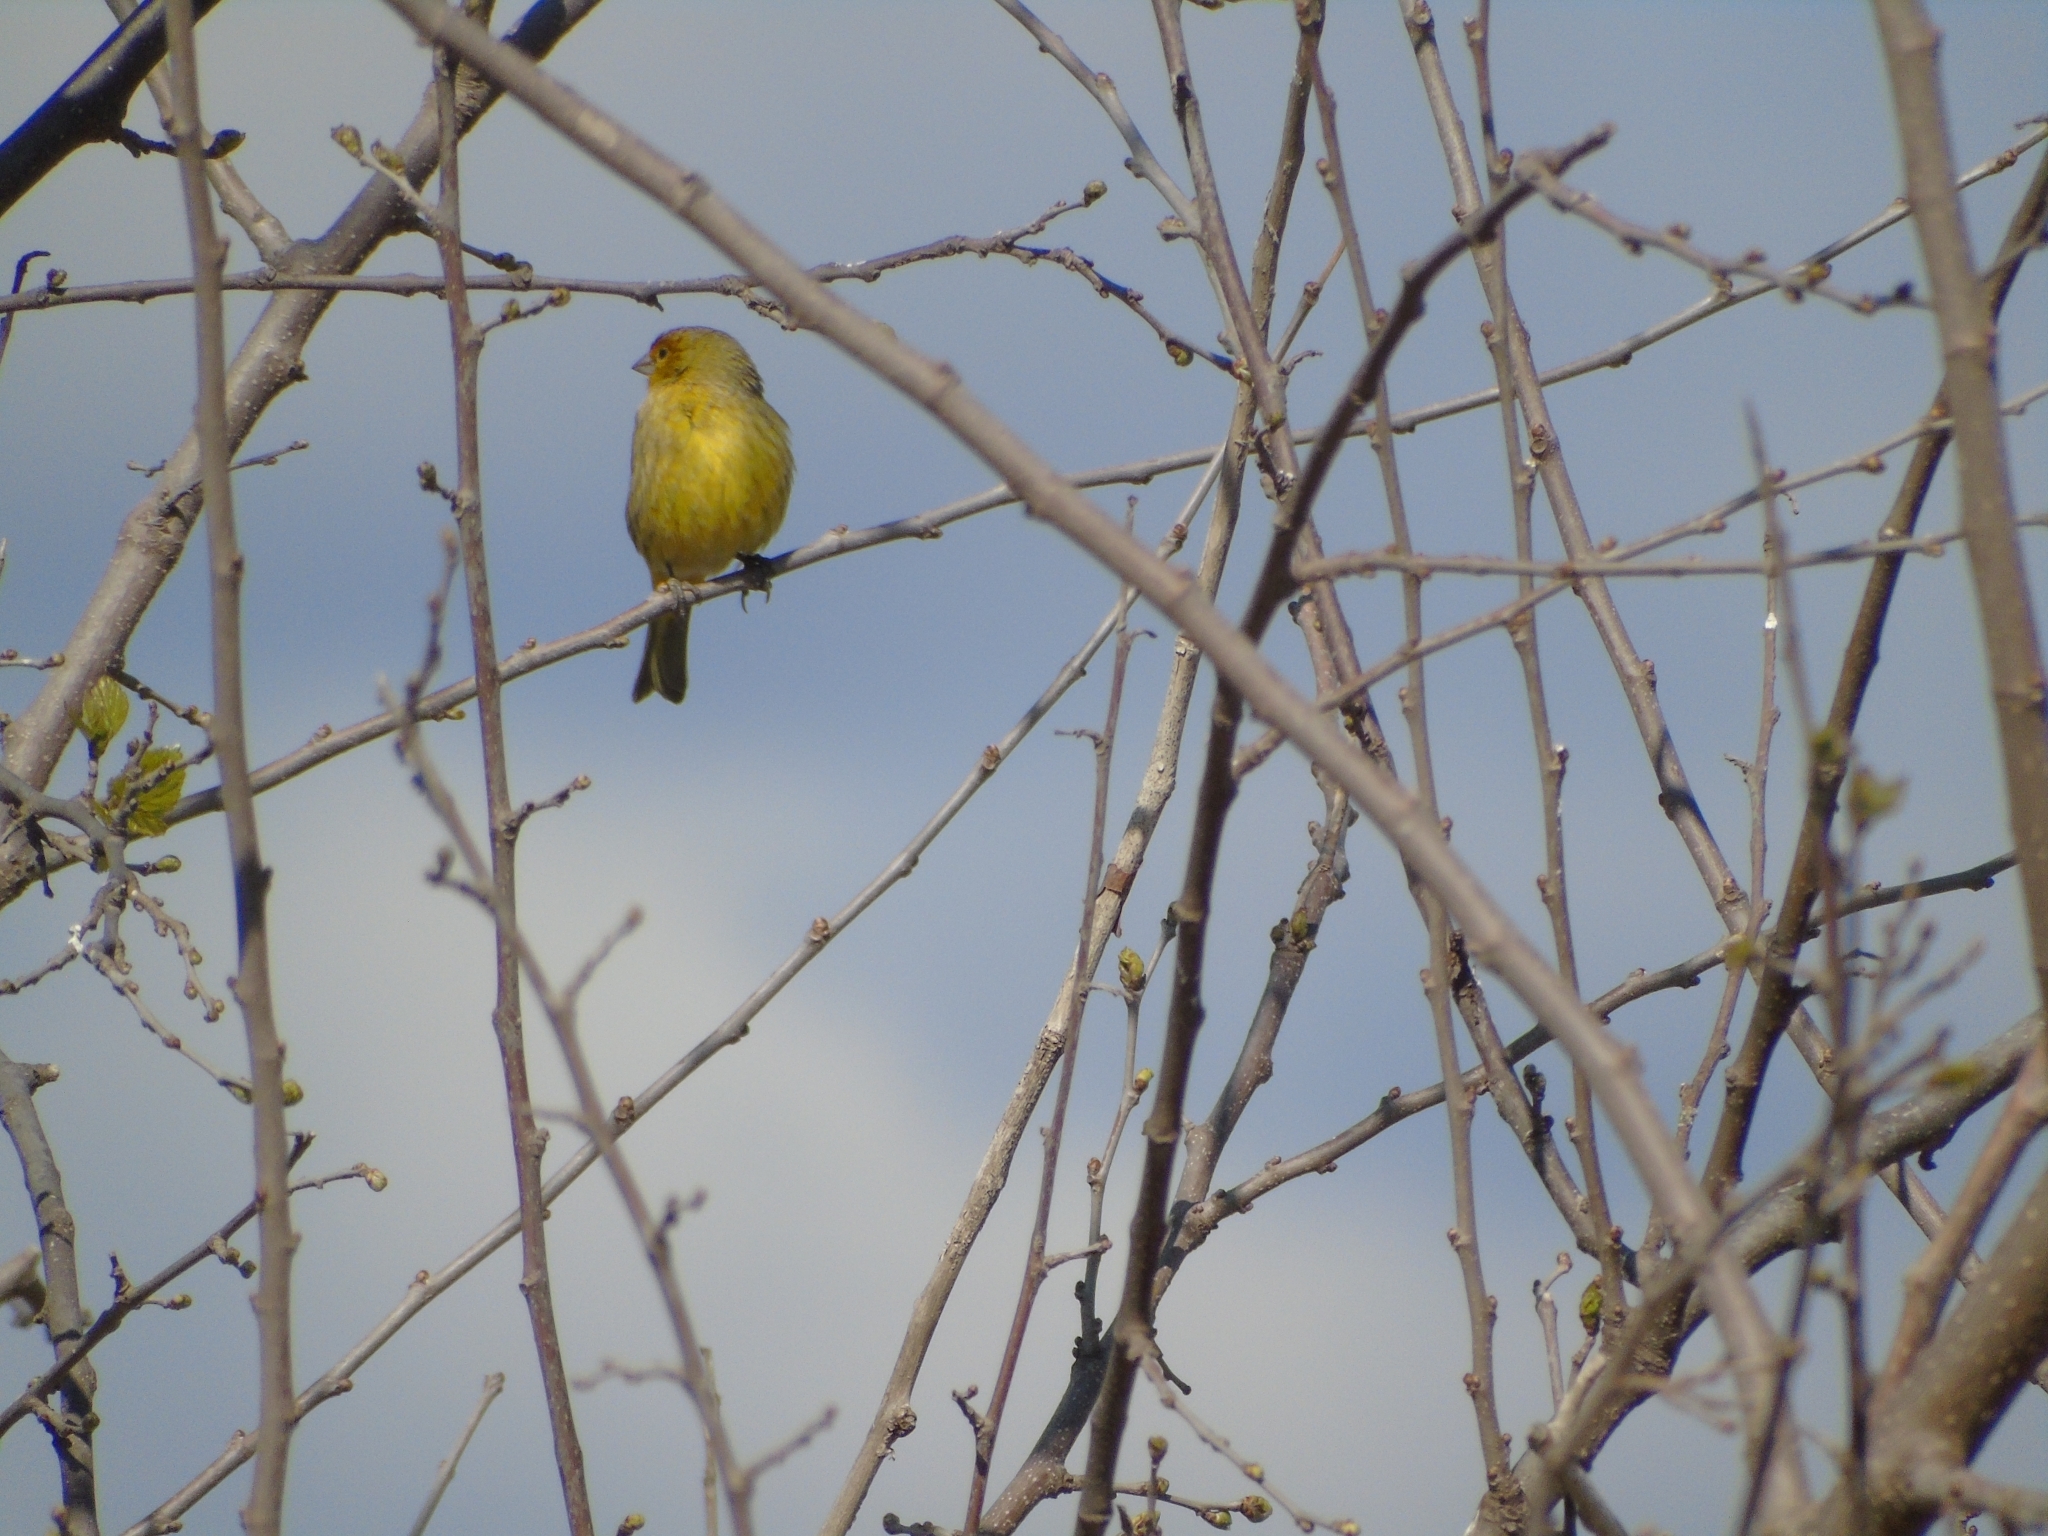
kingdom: Animalia
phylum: Chordata
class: Aves
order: Passeriformes
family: Thraupidae
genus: Sicalis
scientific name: Sicalis flaveola
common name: Saffron finch
